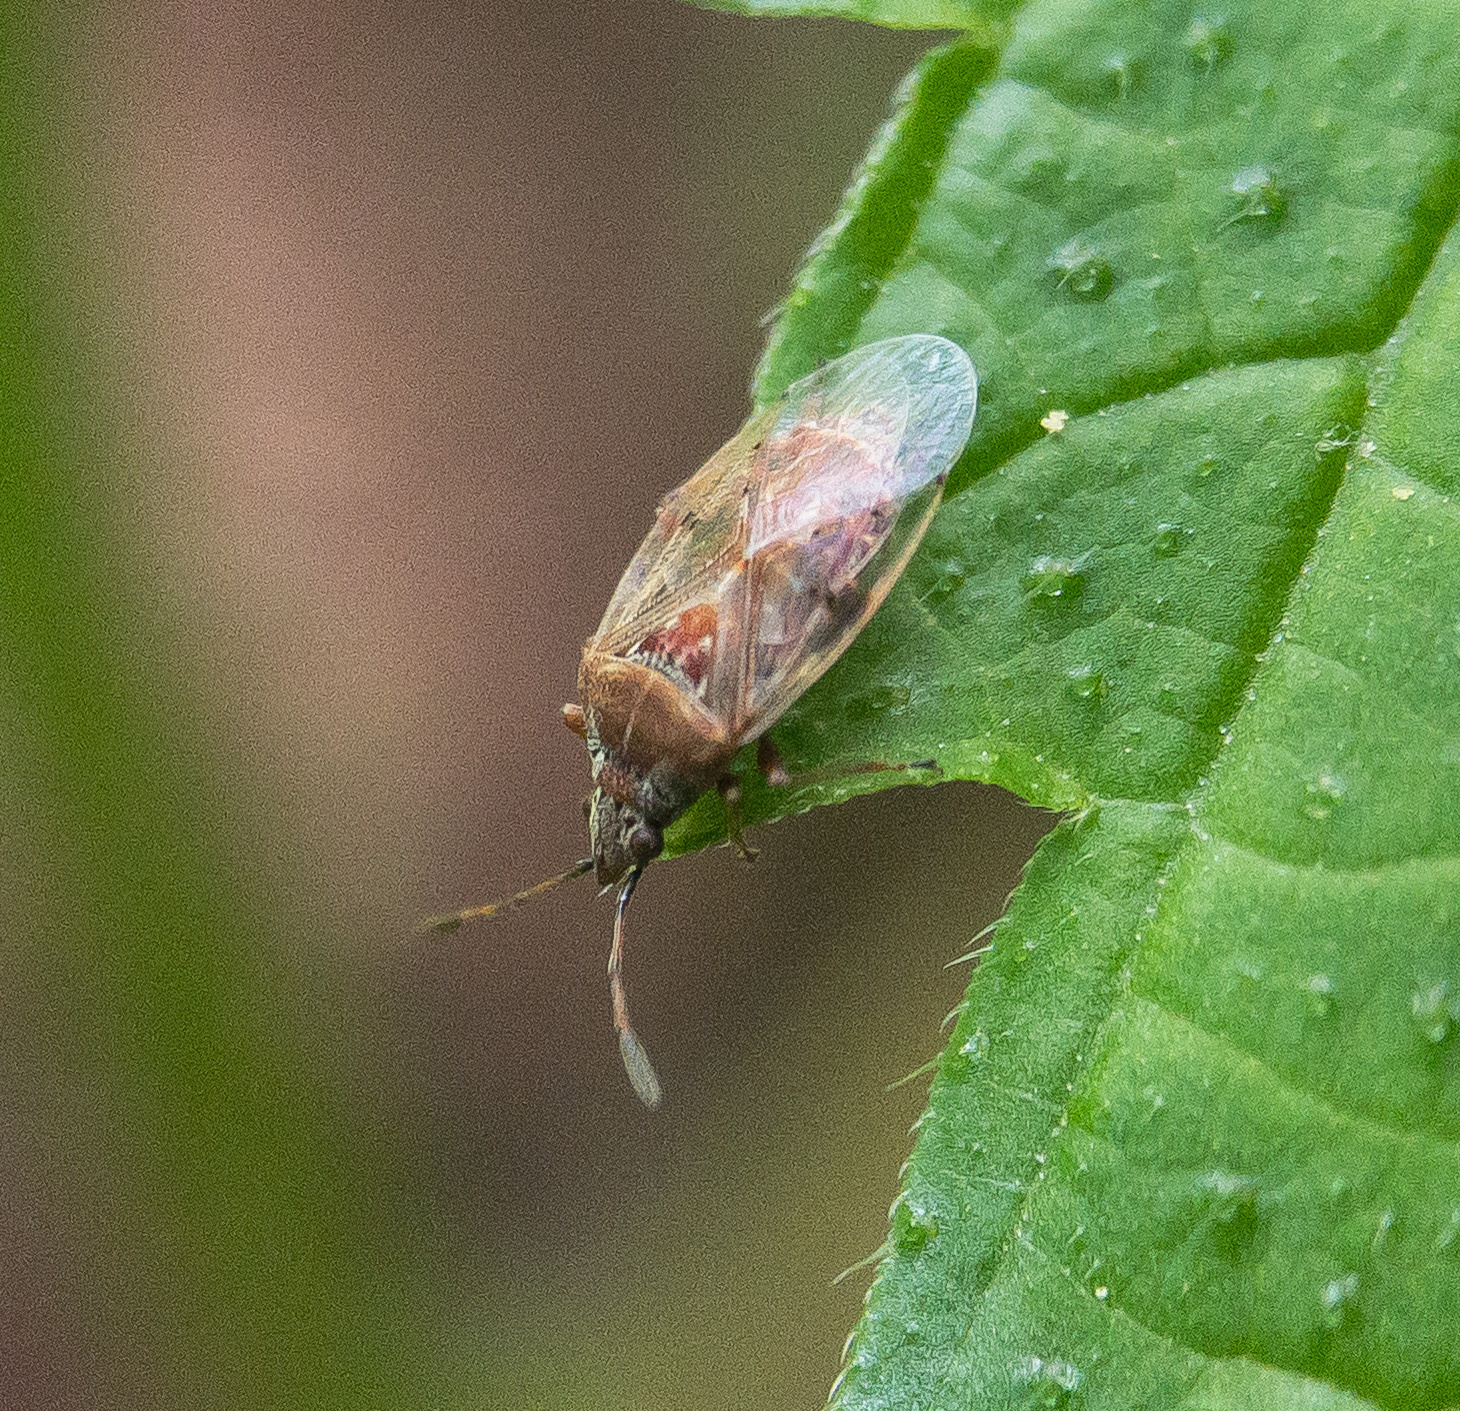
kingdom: Animalia
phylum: Arthropoda
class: Insecta
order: Hemiptera
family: Lygaeidae
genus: Kleidocerys
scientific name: Kleidocerys resedae
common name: Birch catkin bug
